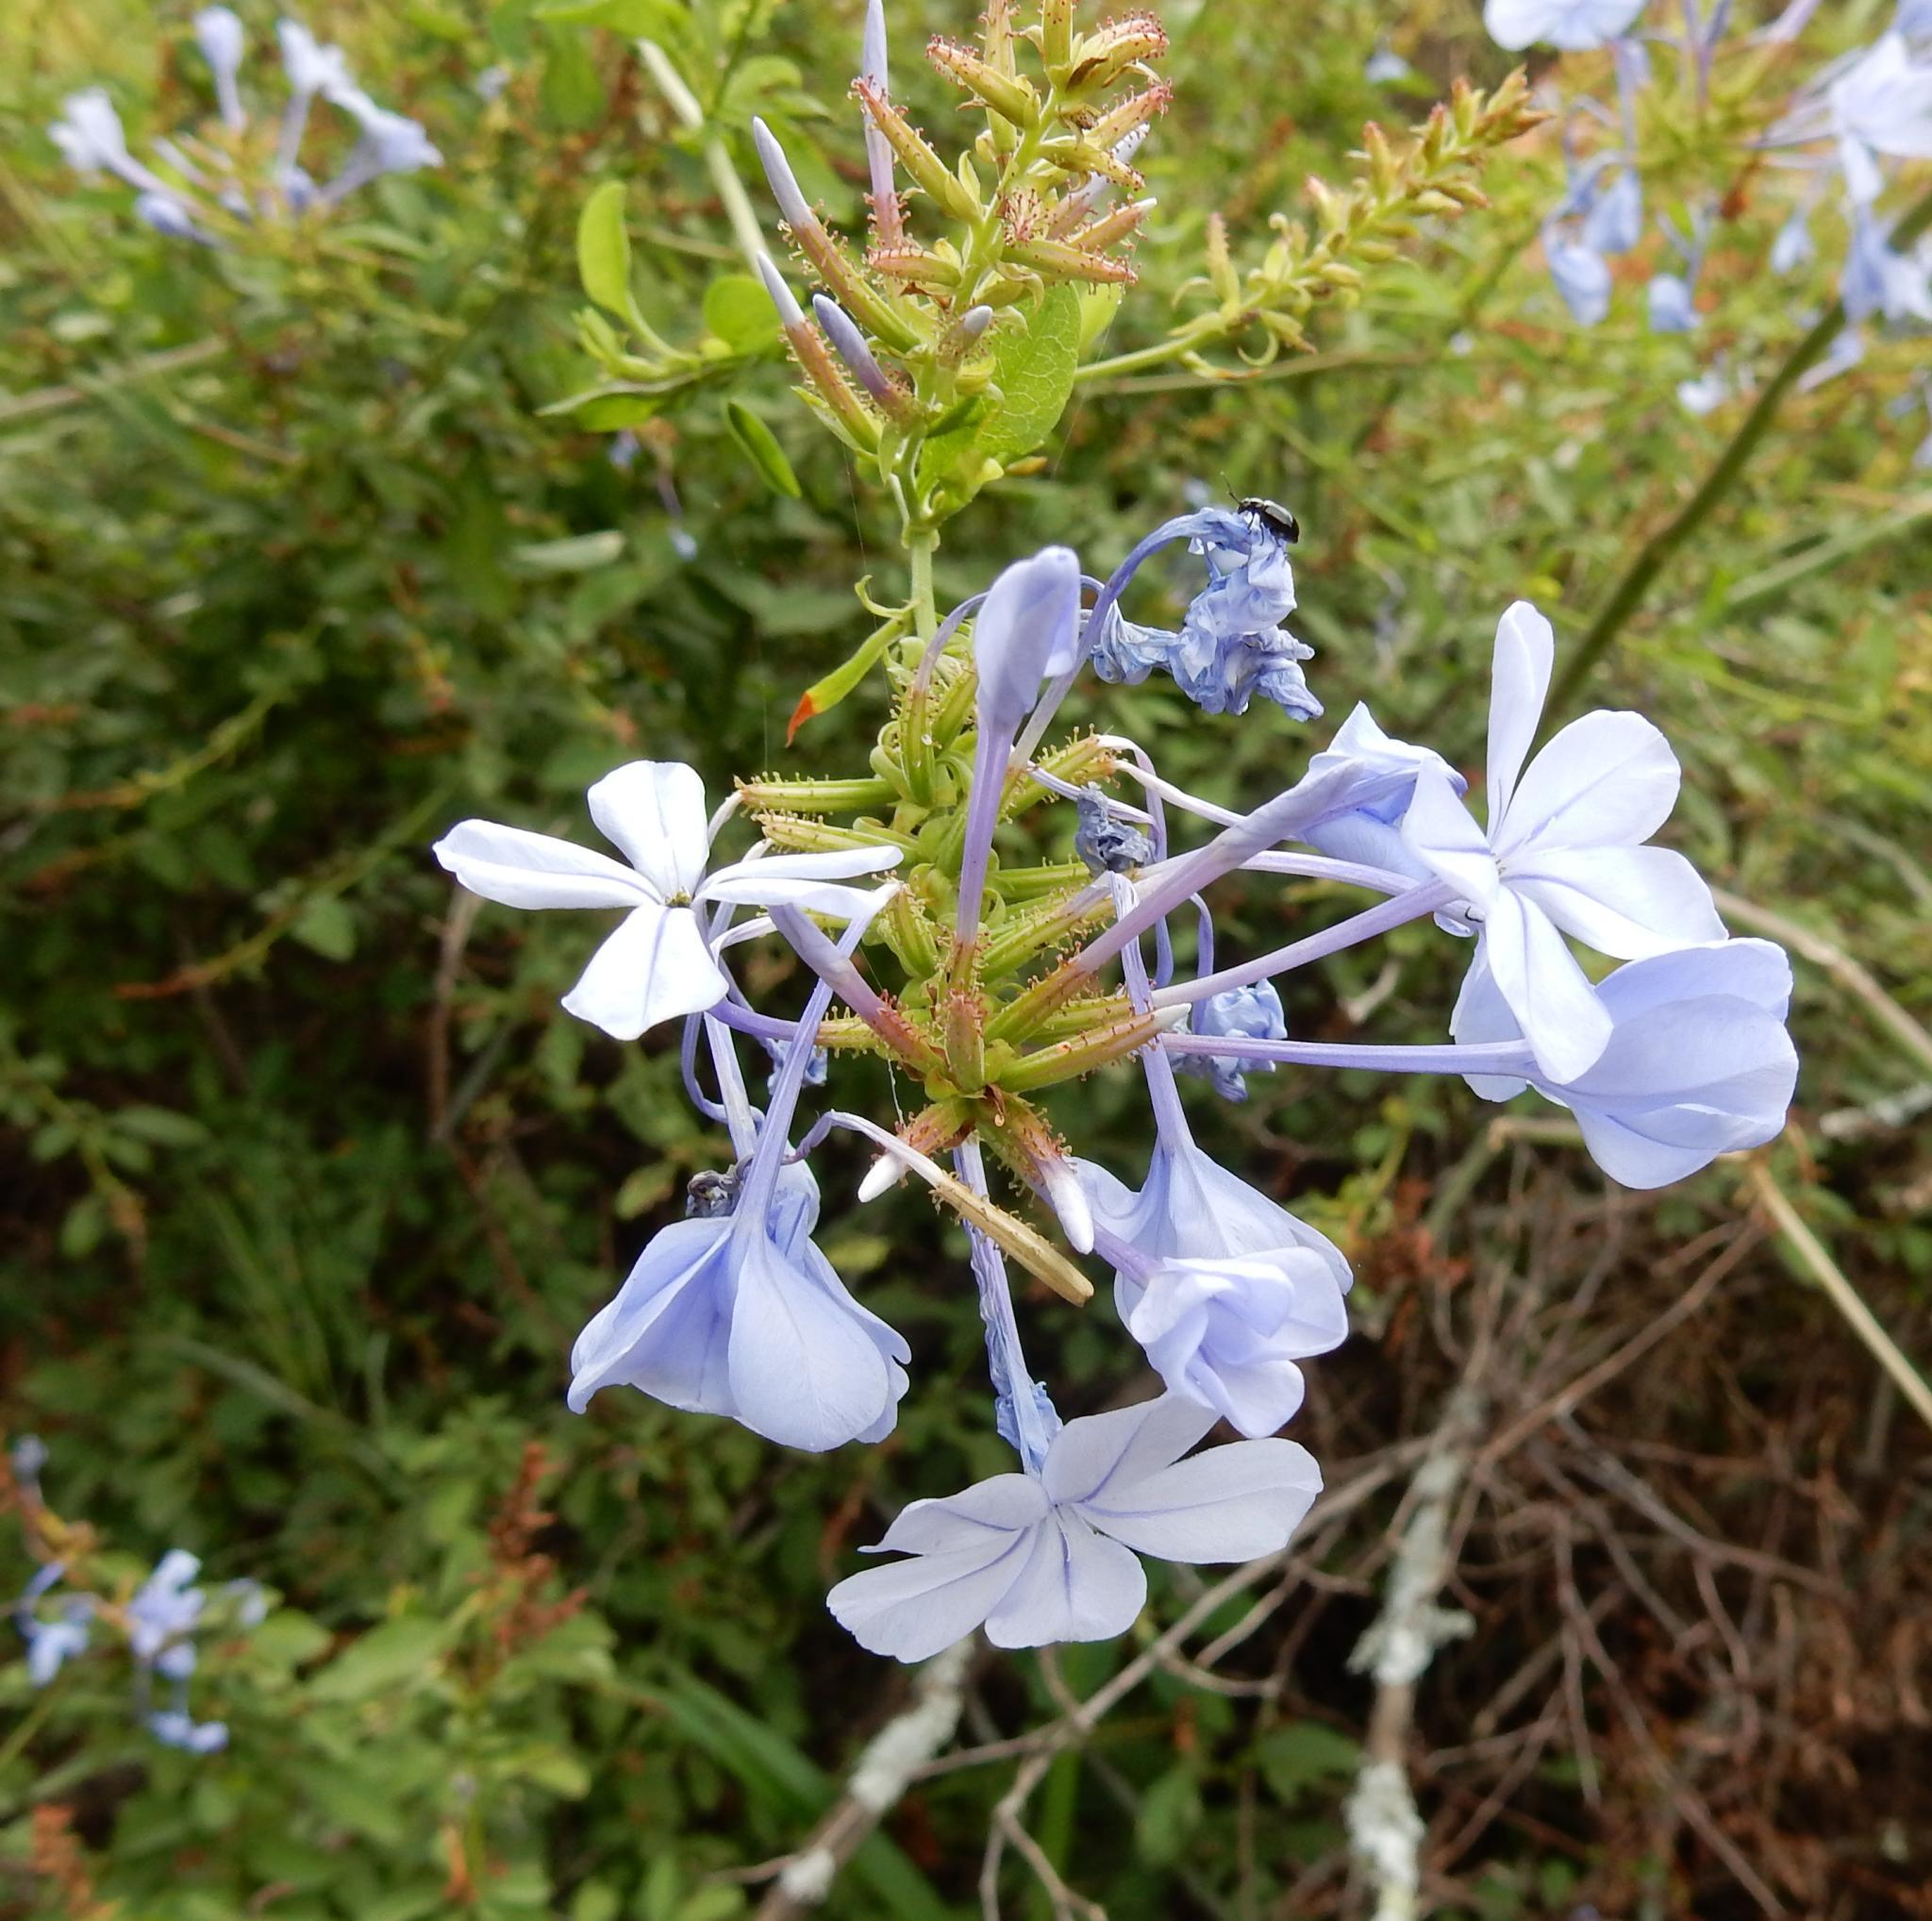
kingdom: Plantae
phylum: Tracheophyta
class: Magnoliopsida
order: Caryophyllales
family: Plumbaginaceae
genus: Plumbago
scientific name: Plumbago auriculata
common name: Cape leadwort
